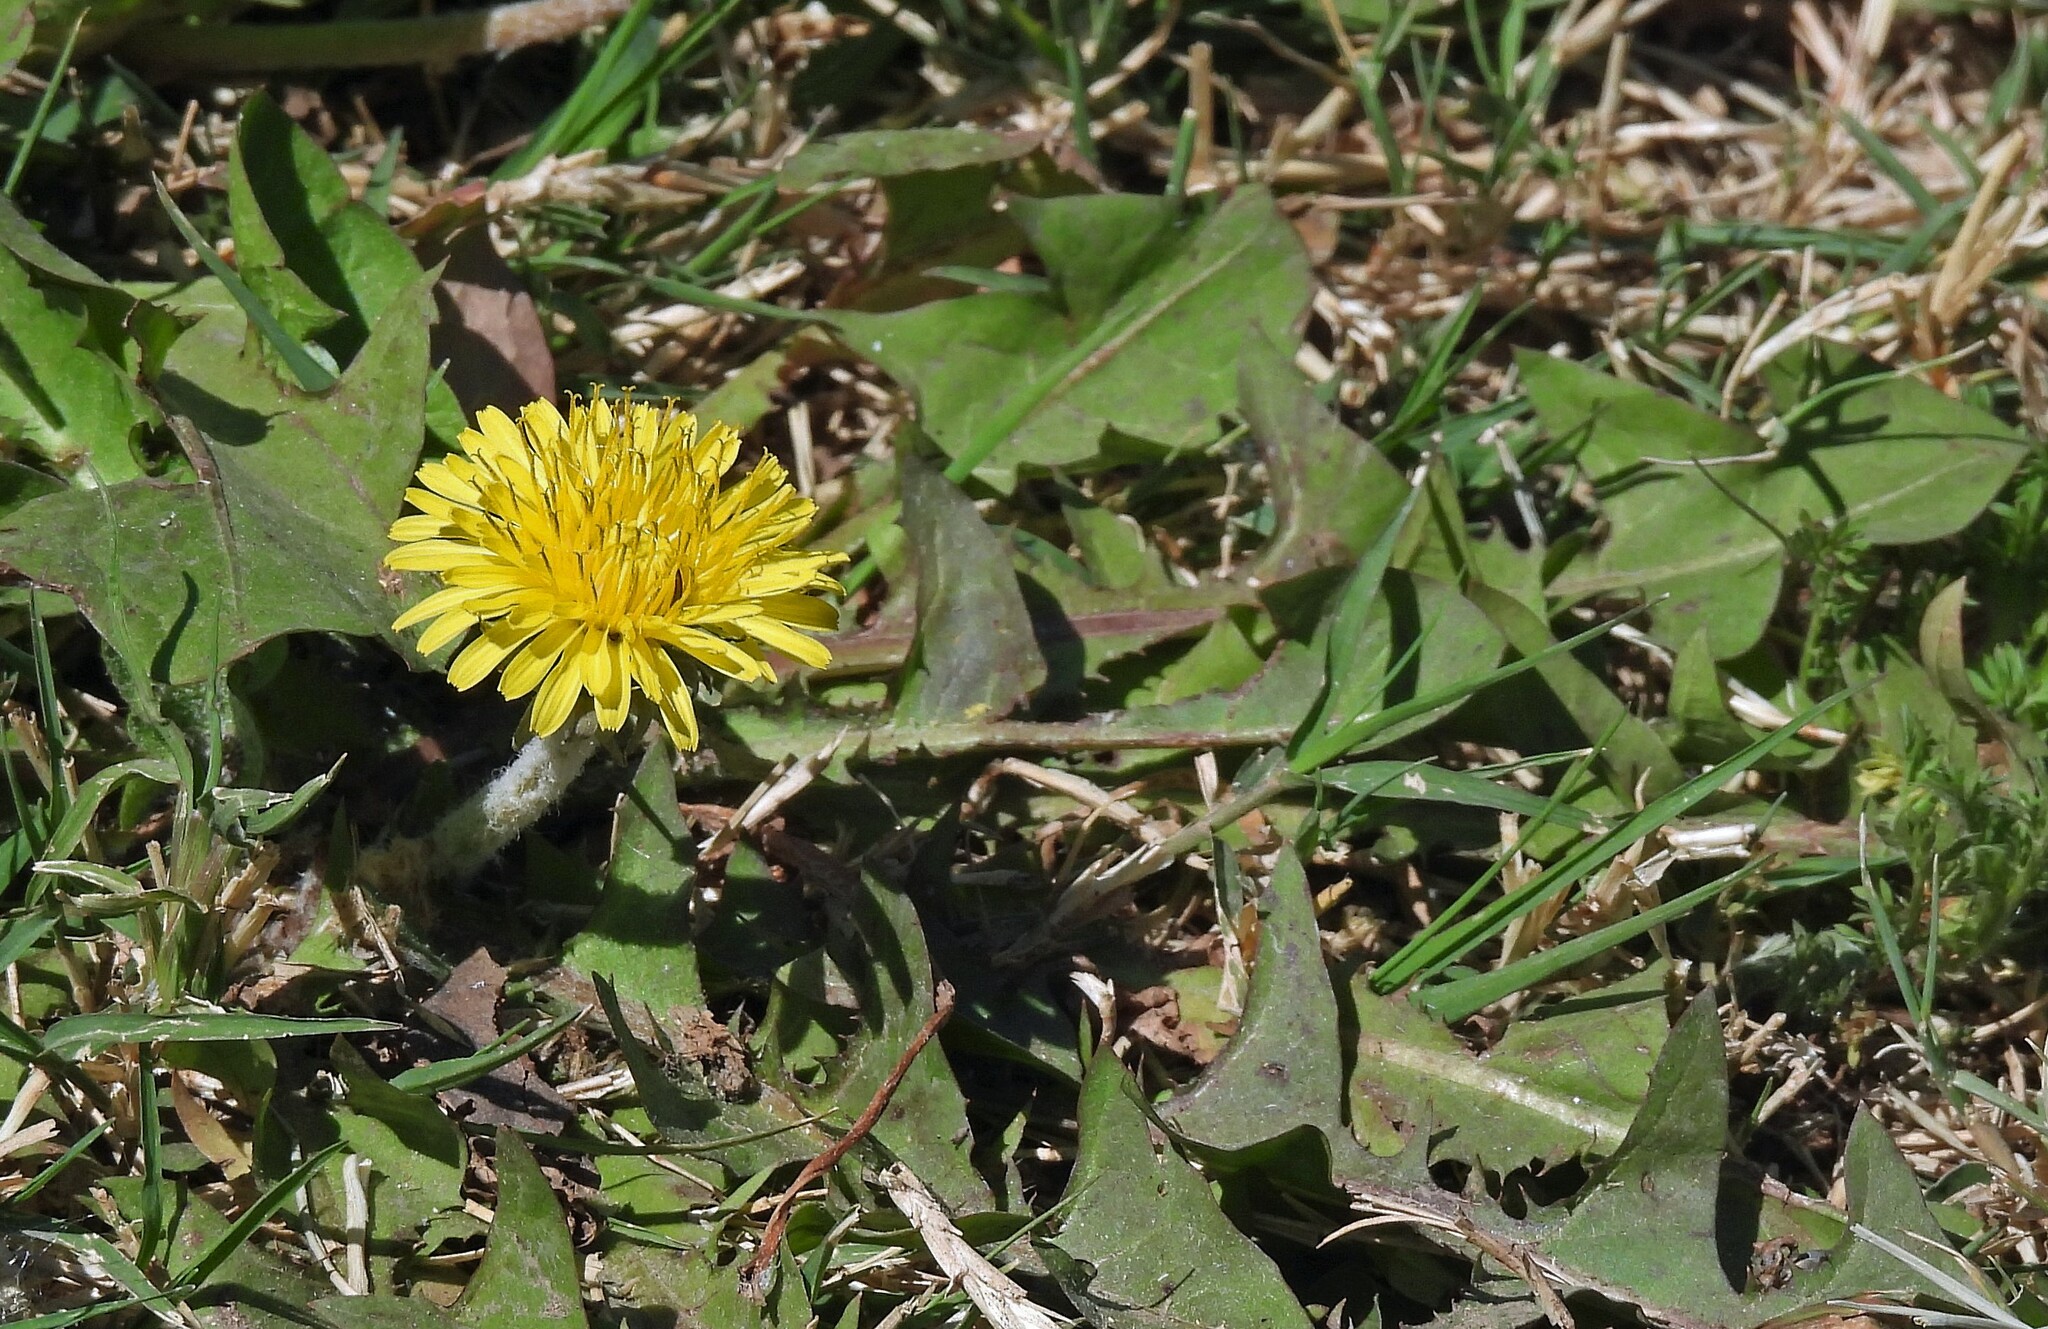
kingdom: Plantae
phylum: Tracheophyta
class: Magnoliopsida
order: Asterales
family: Asteraceae
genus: Taraxacum
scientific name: Taraxacum officinale
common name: Common dandelion
